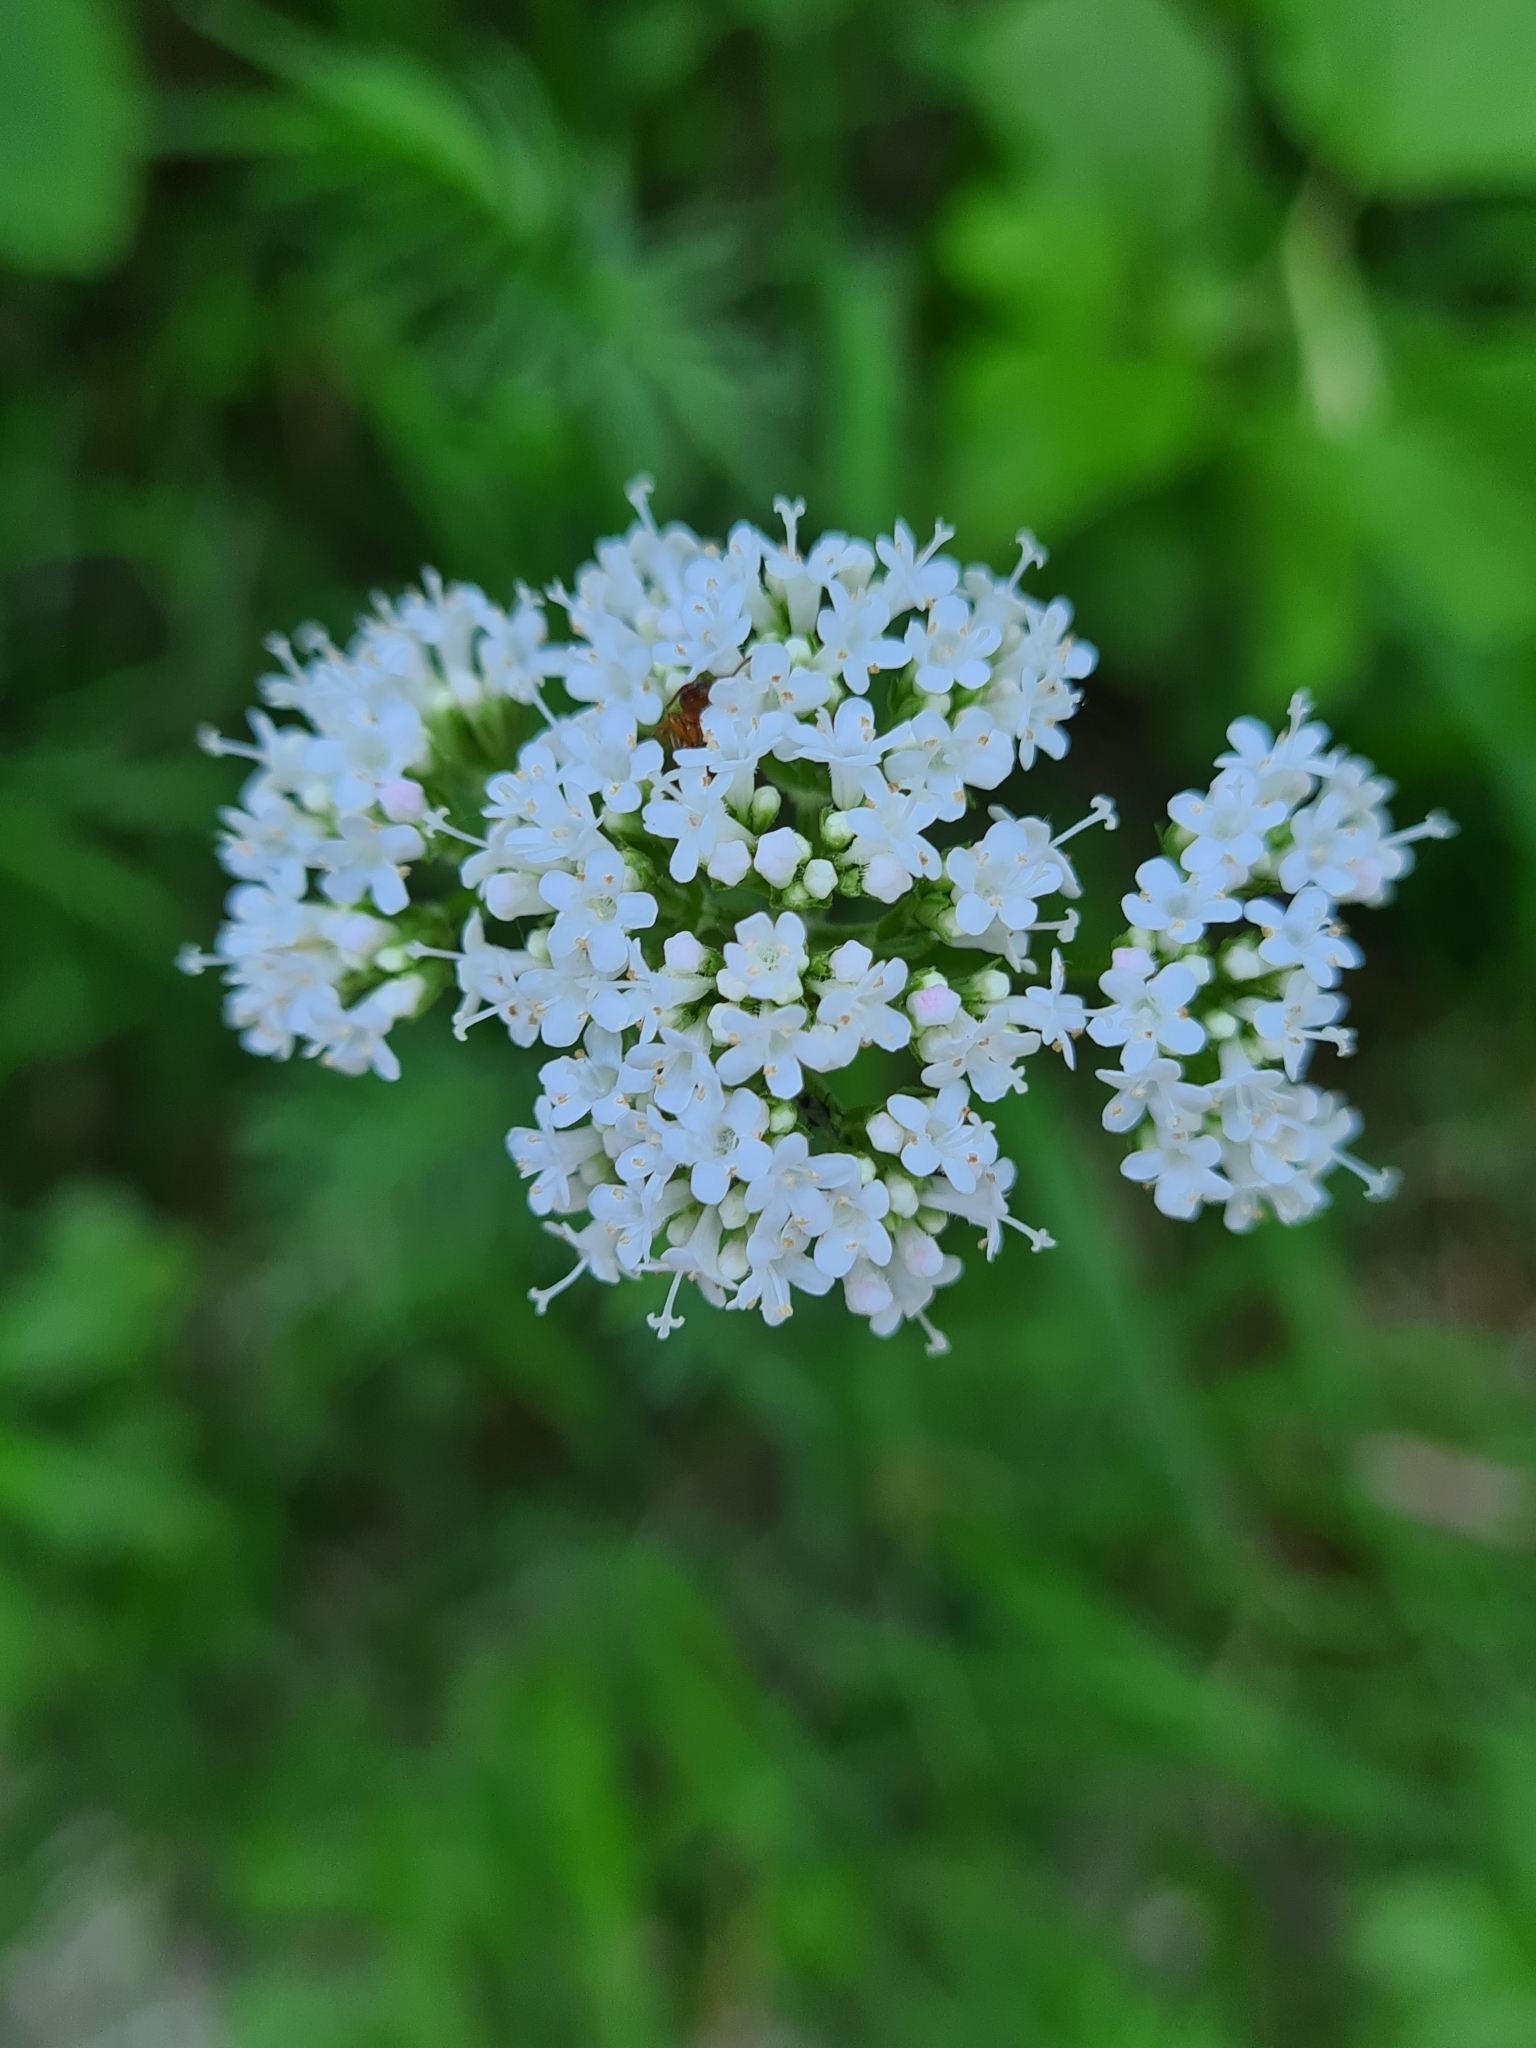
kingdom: Plantae
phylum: Tracheophyta
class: Magnoliopsida
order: Dipsacales
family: Caprifoliaceae
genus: Valeriana
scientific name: Valeriana officinalis
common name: Common valerian
